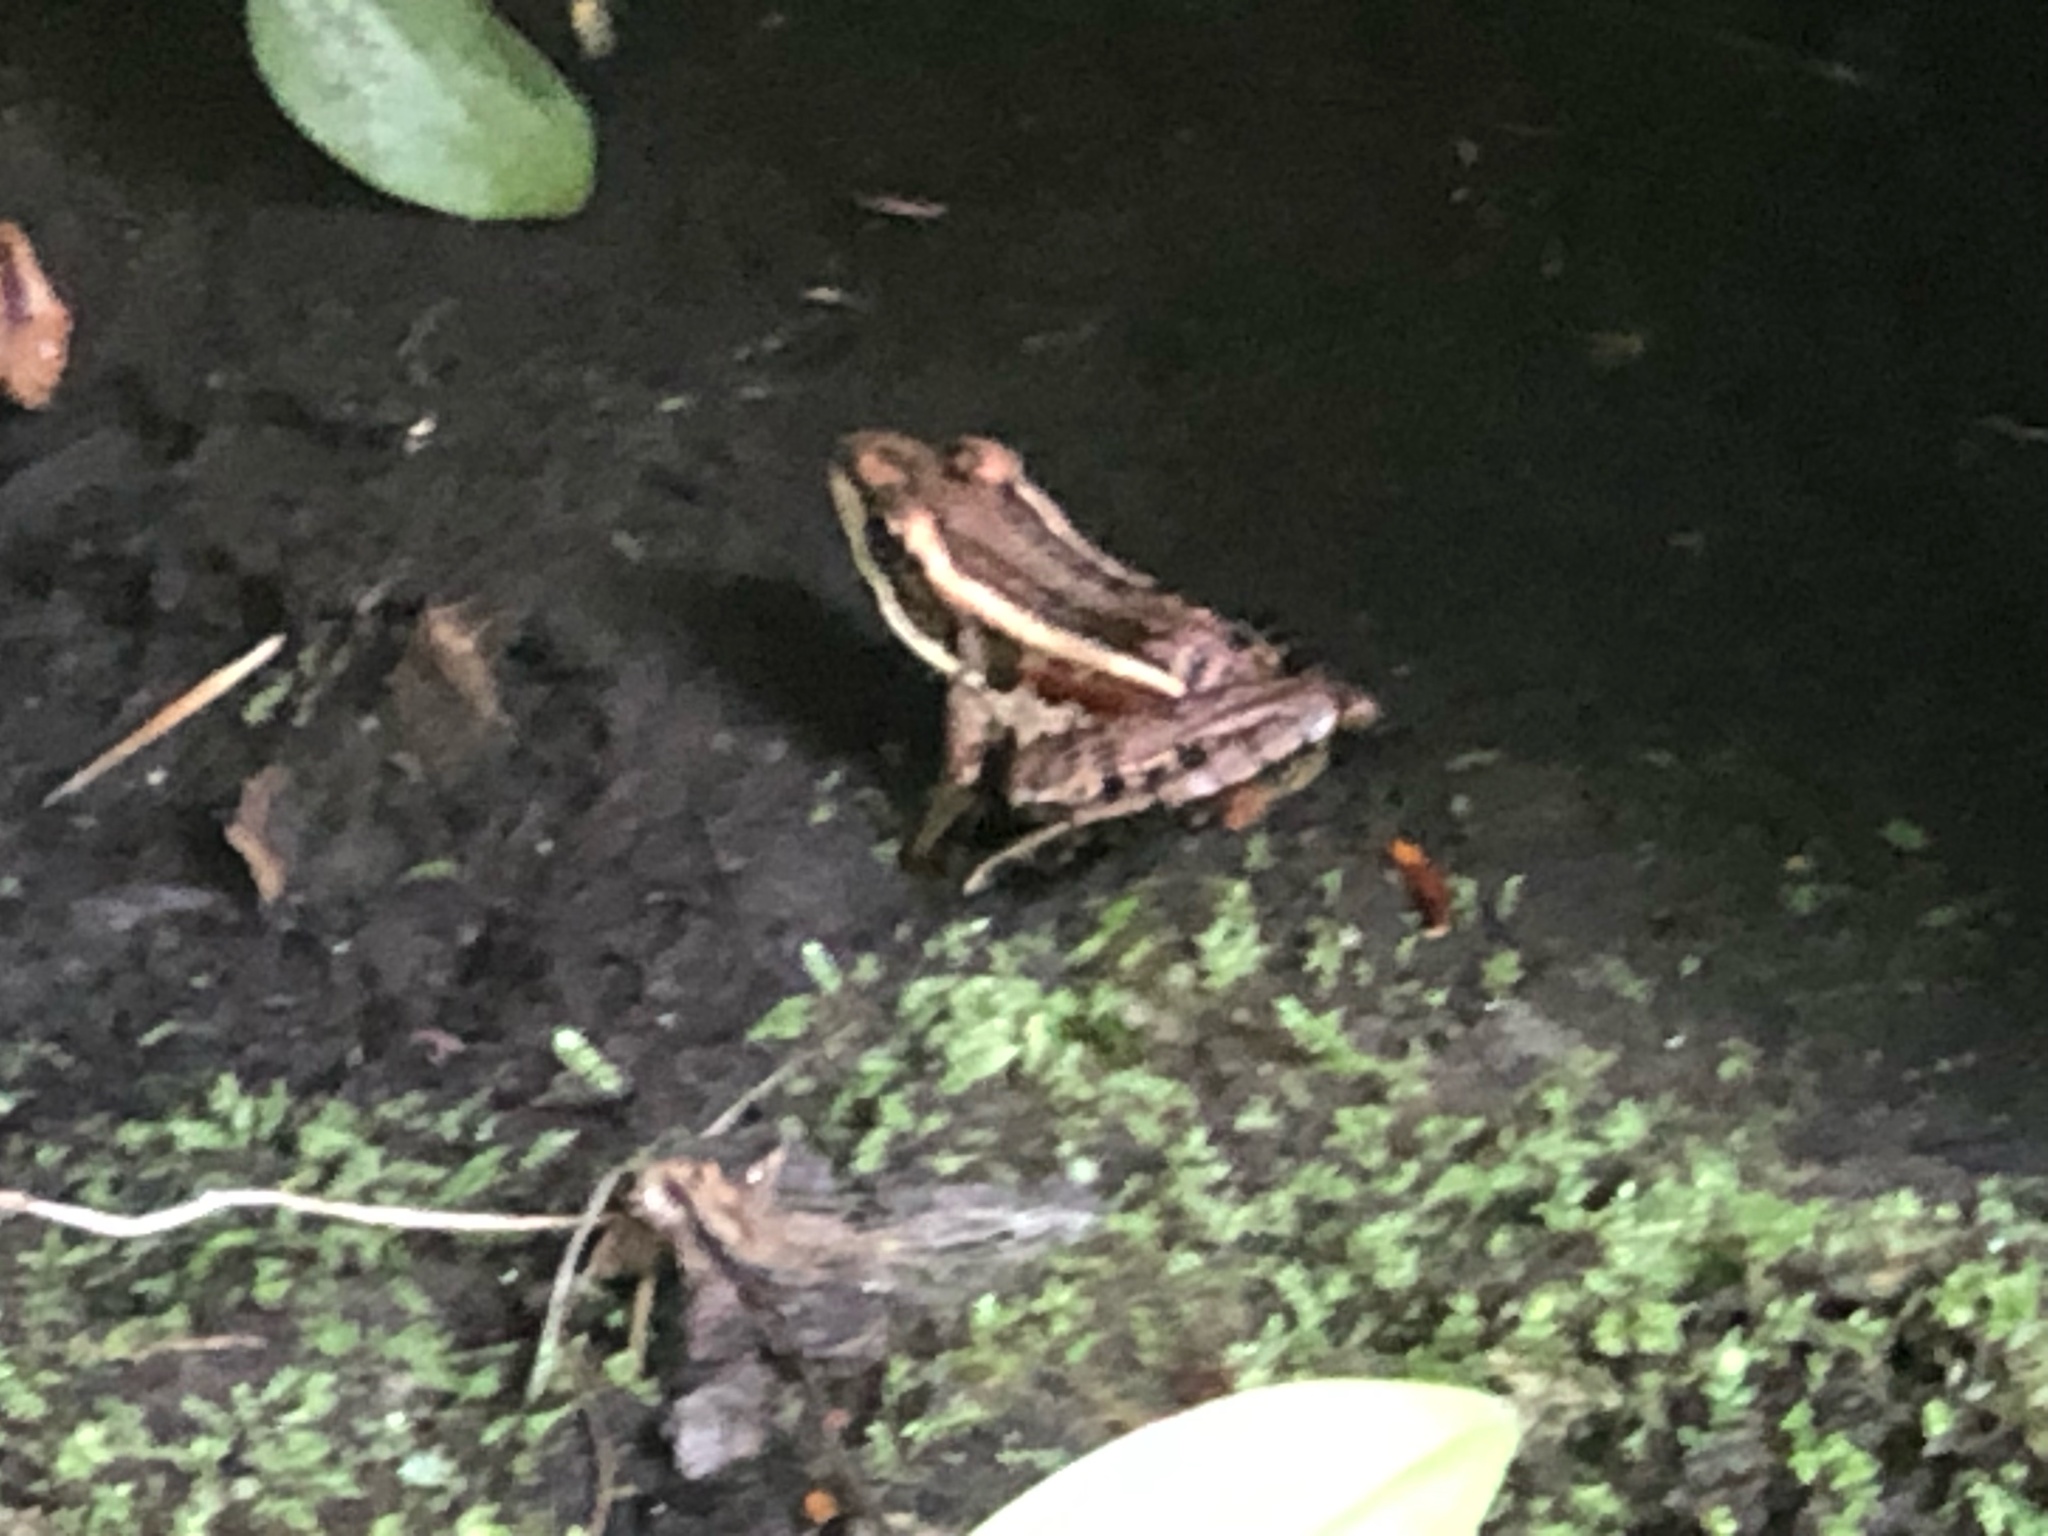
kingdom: Animalia
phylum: Chordata
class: Amphibia
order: Anura
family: Ranidae
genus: Lithobates
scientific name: Lithobates palustris
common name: Pickerel frog
